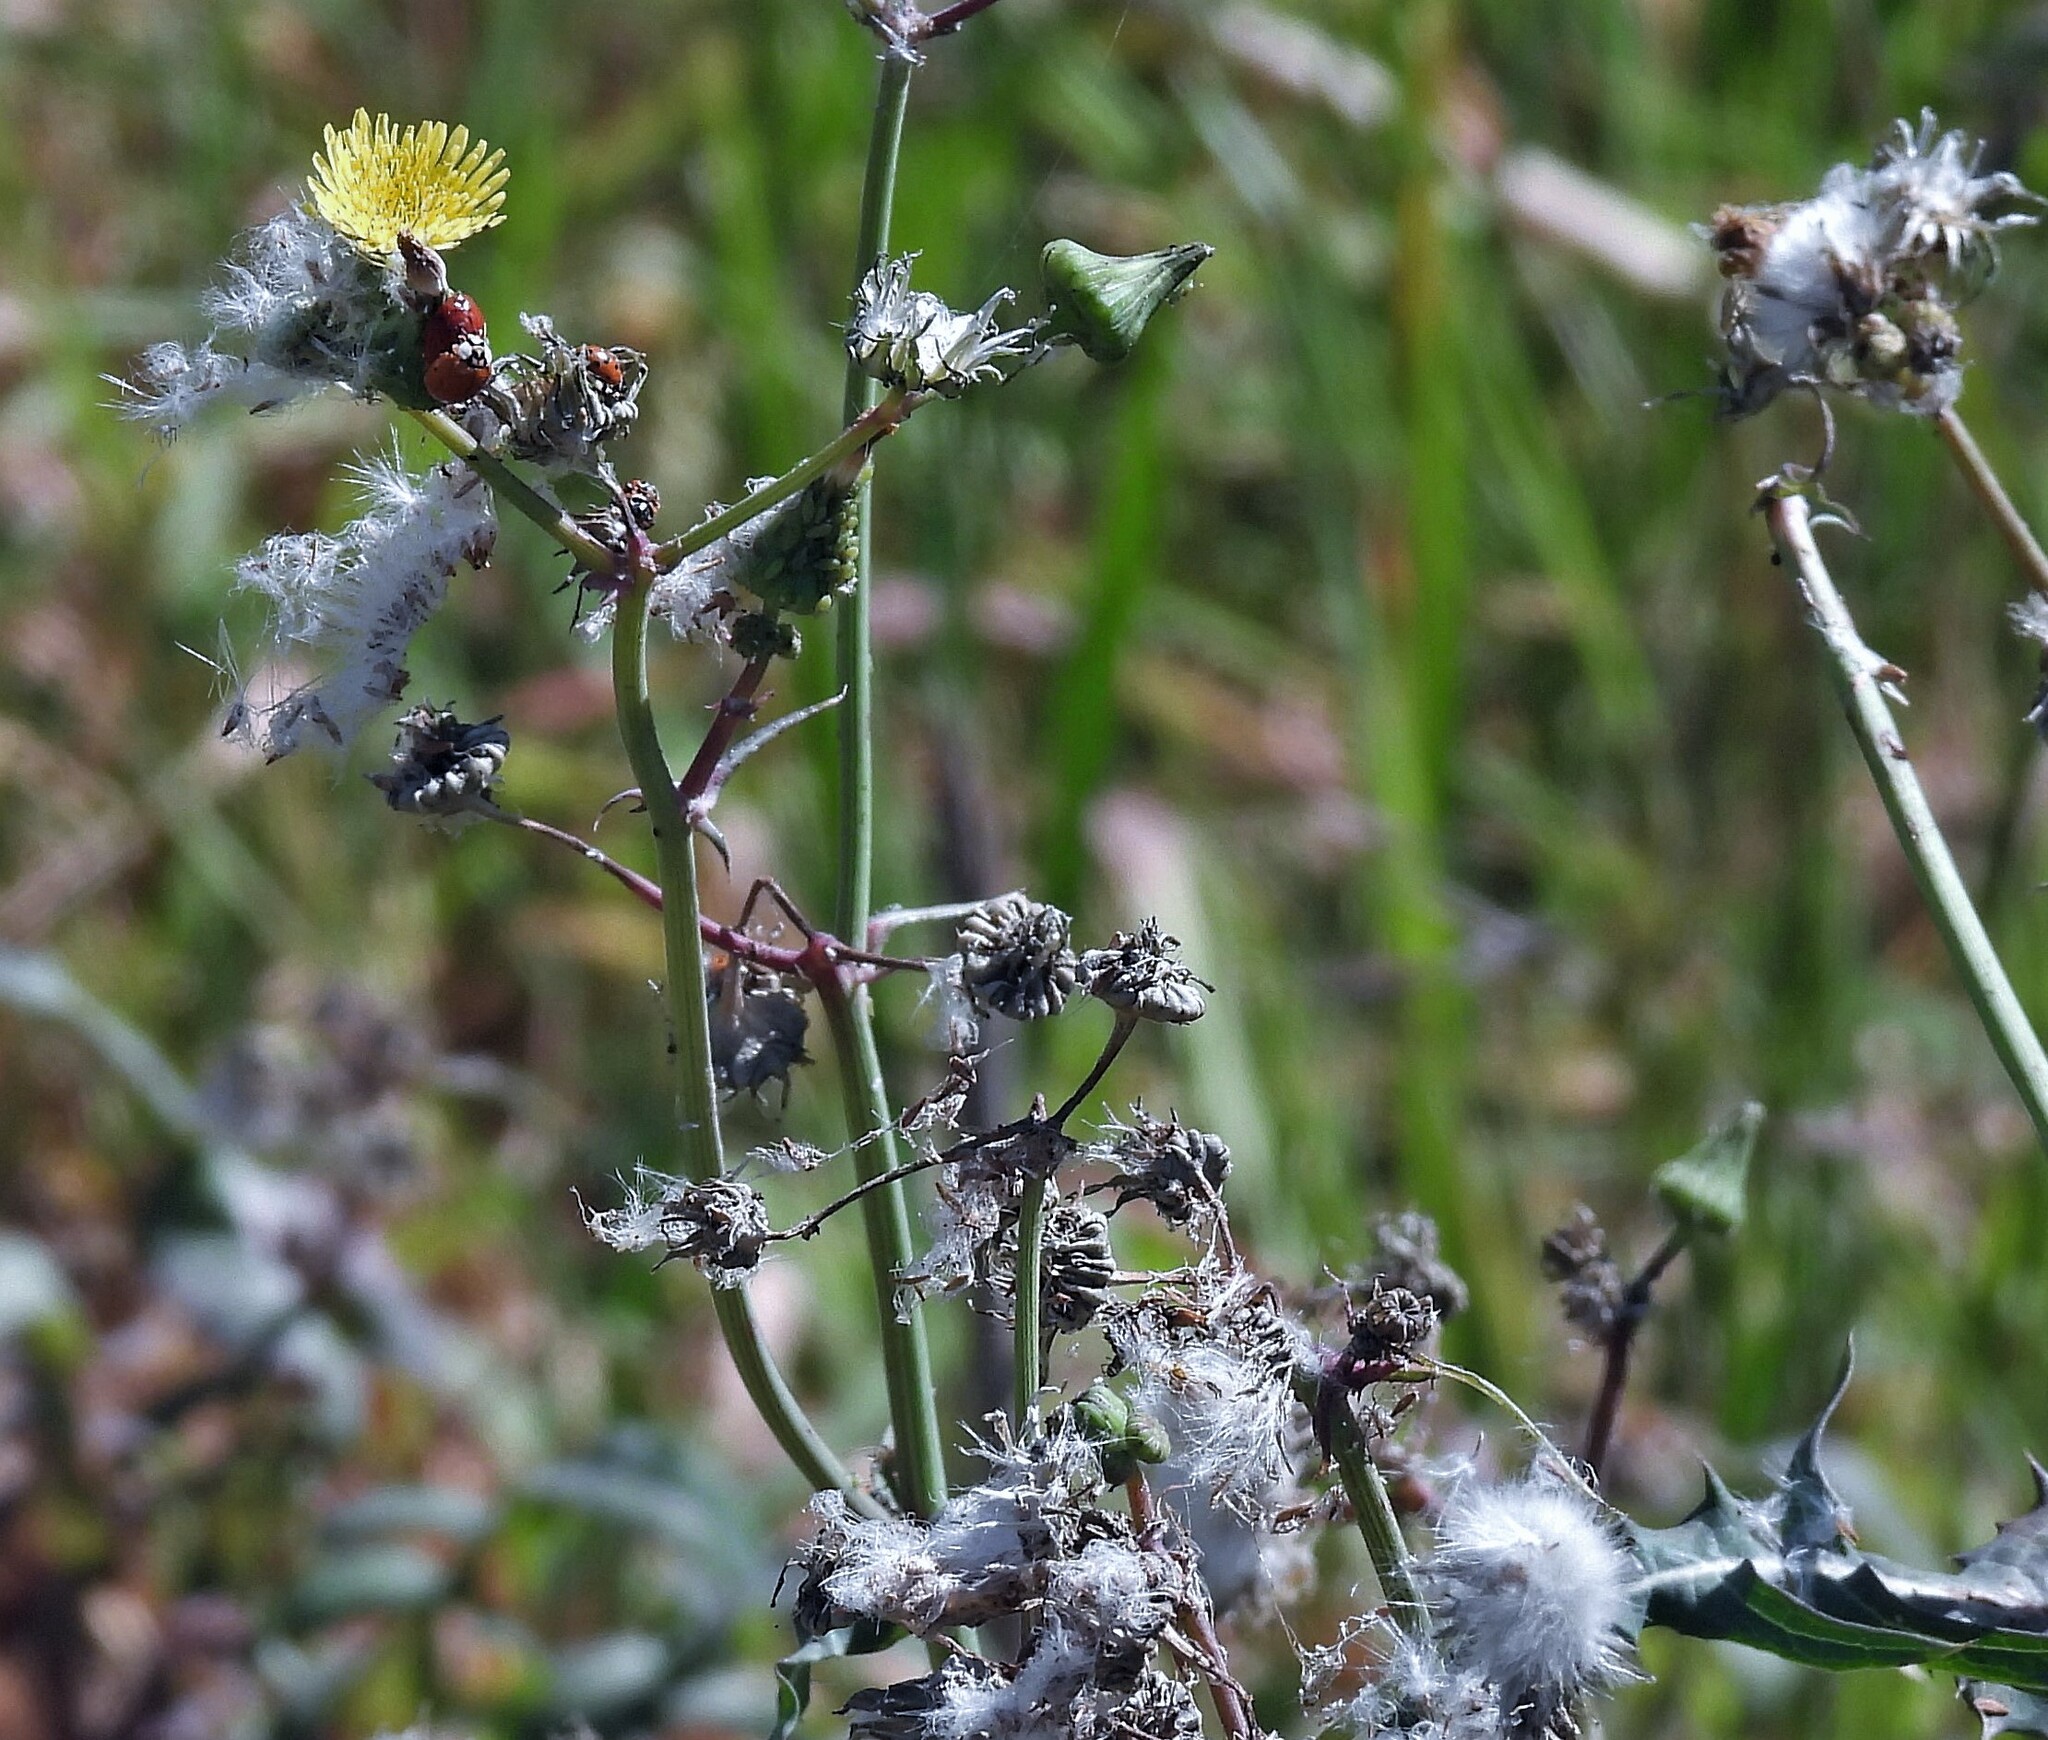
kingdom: Plantae
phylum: Tracheophyta
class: Magnoliopsida
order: Asterales
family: Asteraceae
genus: Sonchus
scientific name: Sonchus oleraceus
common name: Common sowthistle
